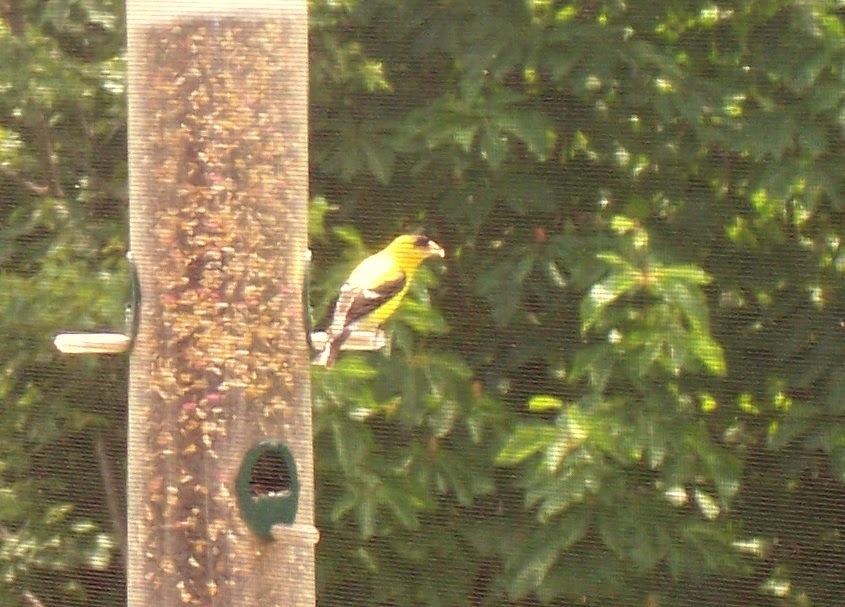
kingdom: Animalia
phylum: Chordata
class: Aves
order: Passeriformes
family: Fringillidae
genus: Spinus
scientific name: Spinus tristis
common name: American goldfinch
